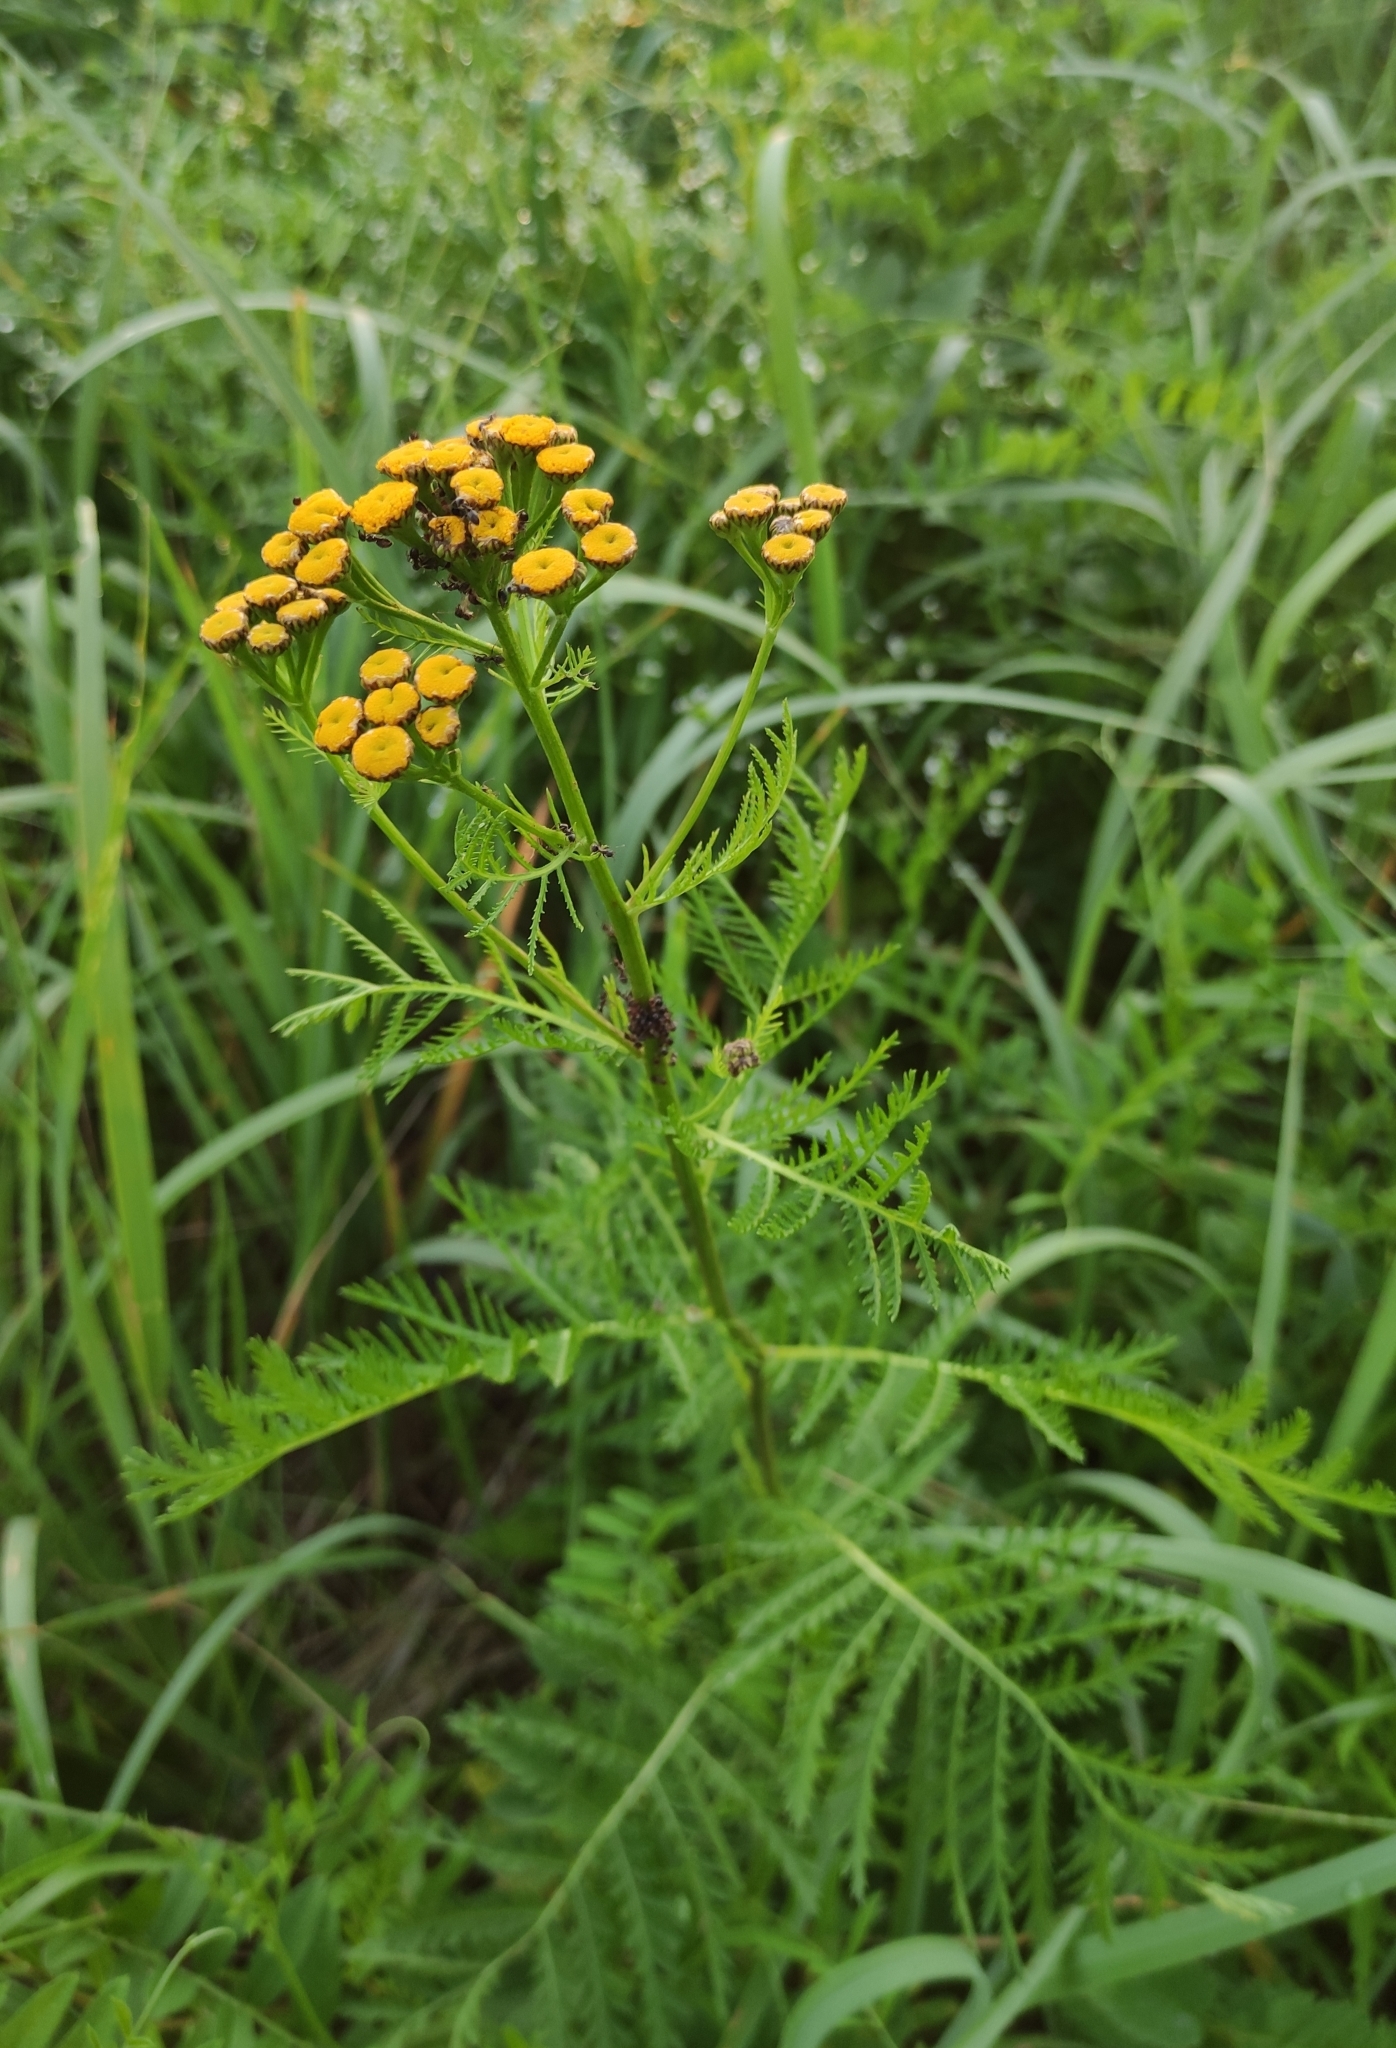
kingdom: Plantae
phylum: Tracheophyta
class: Magnoliopsida
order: Asterales
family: Asteraceae
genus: Tanacetum
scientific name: Tanacetum vulgare
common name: Common tansy
